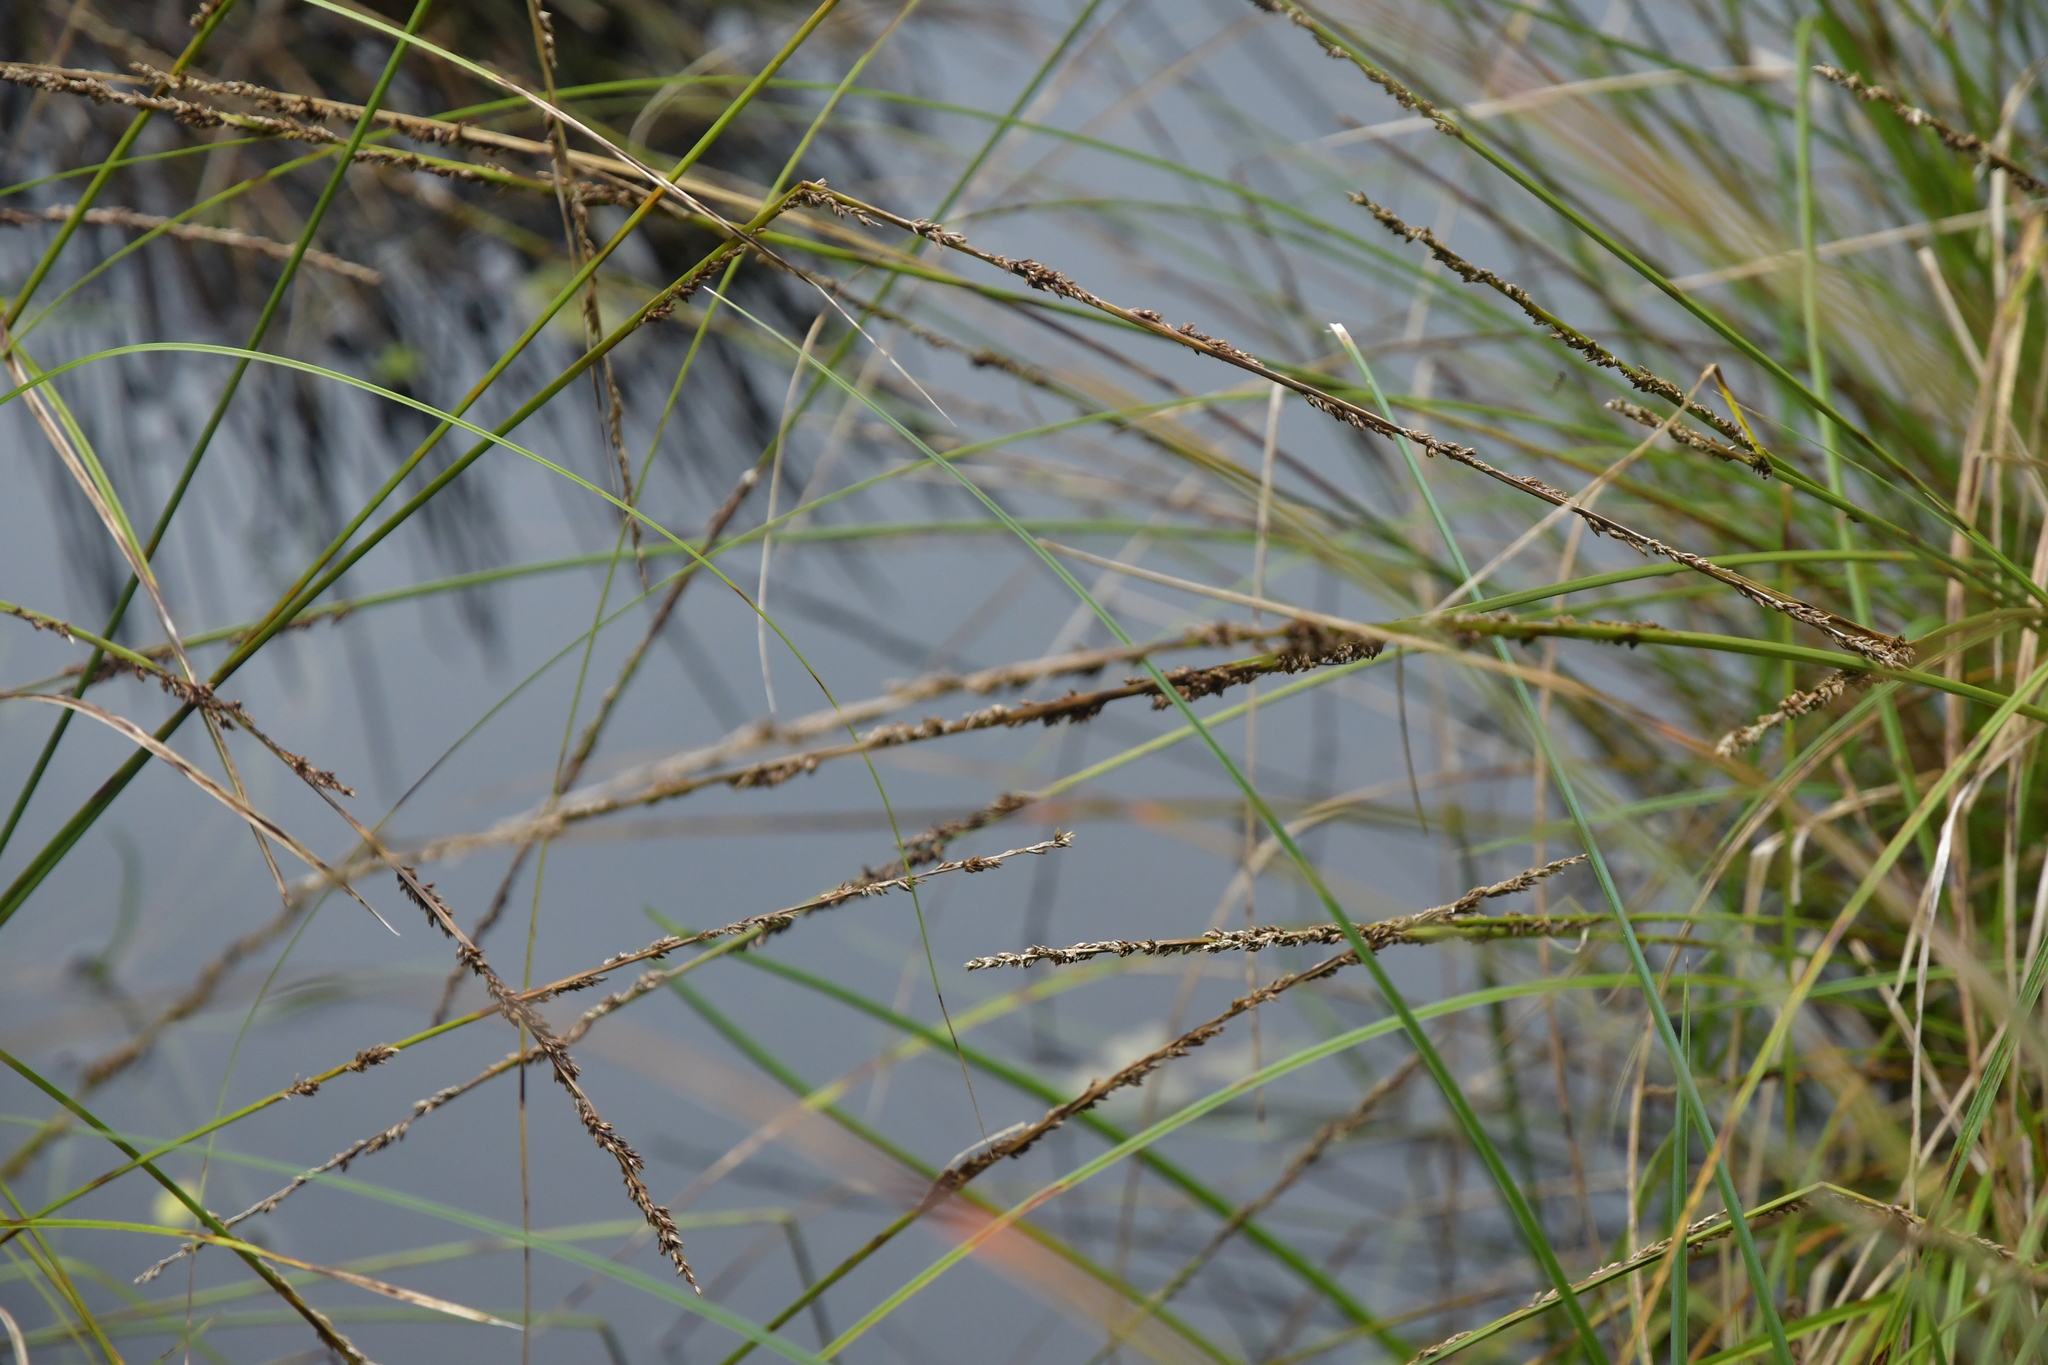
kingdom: Plantae
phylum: Tracheophyta
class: Liliopsida
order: Poales
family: Cyperaceae
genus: Carex
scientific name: Carex virgata
